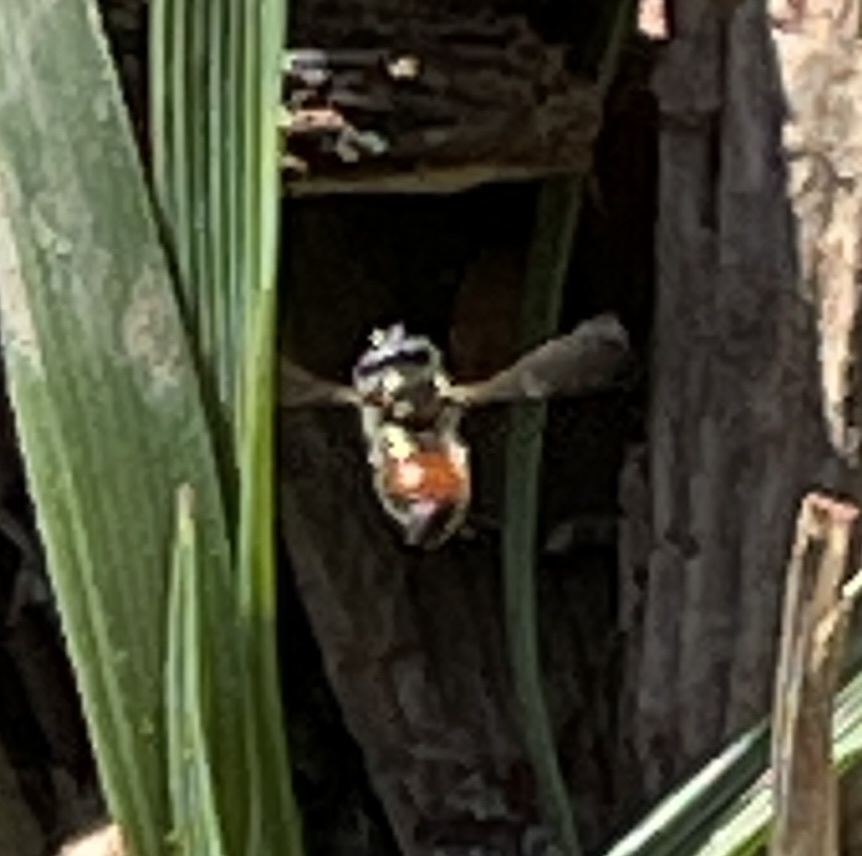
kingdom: Animalia
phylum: Arthropoda
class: Insecta
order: Diptera
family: Syrphidae
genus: Paragus
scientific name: Paragus haemorrhous
